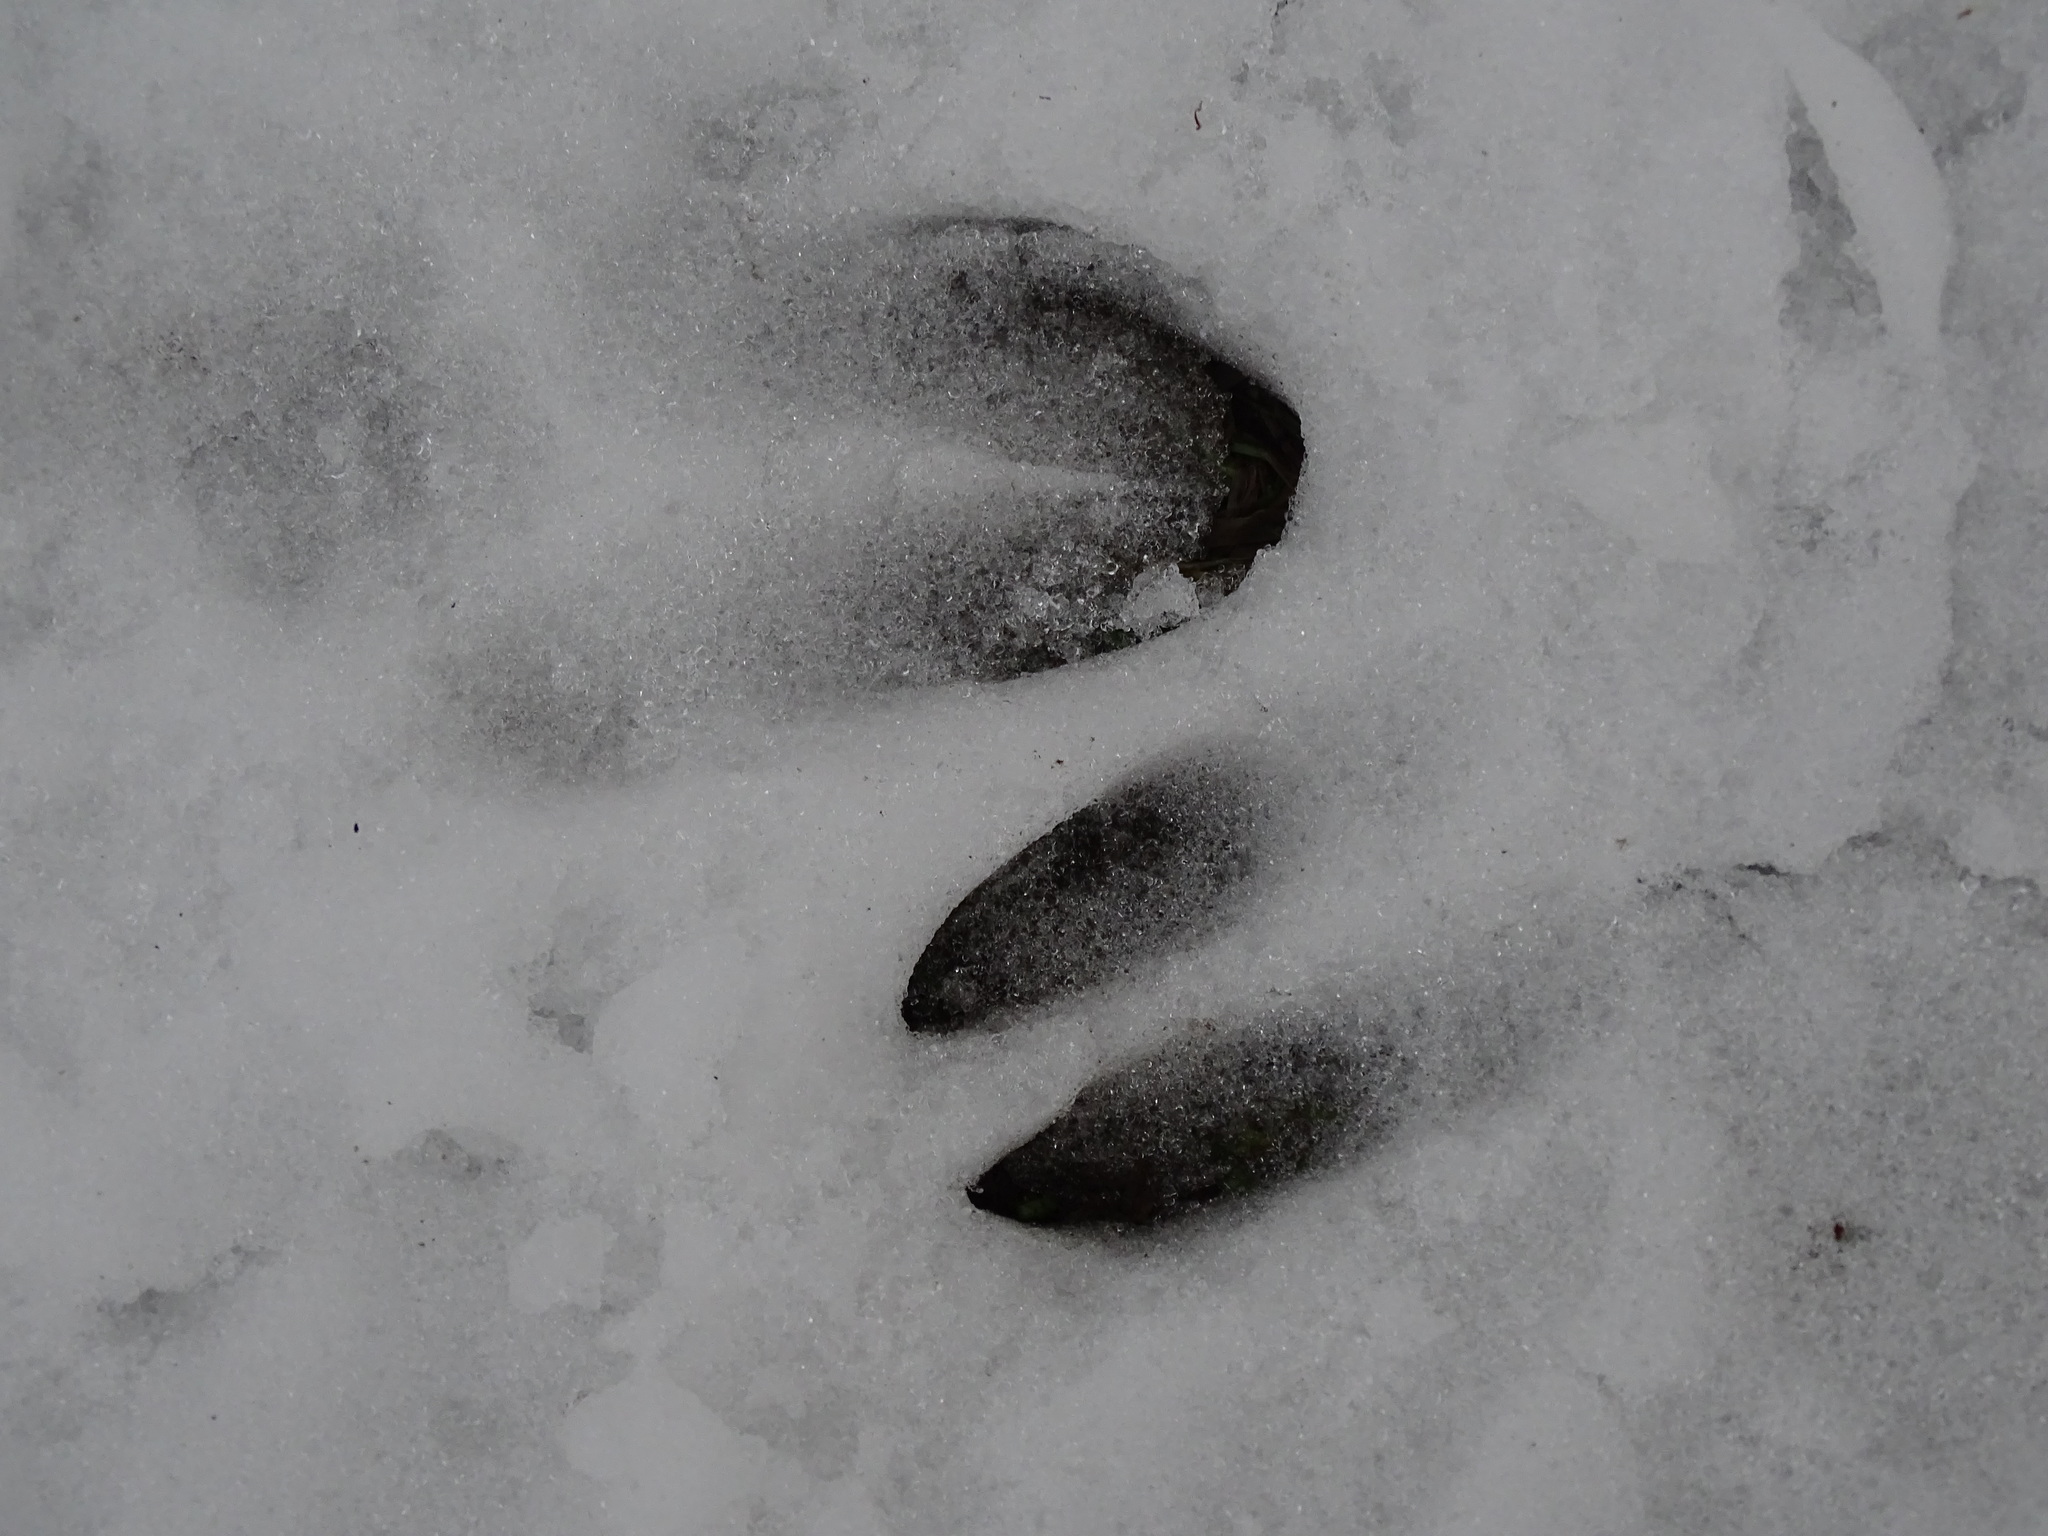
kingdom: Animalia
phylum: Chordata
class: Mammalia
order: Artiodactyla
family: Cervidae
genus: Odocoileus
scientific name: Odocoileus virginianus
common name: White-tailed deer
